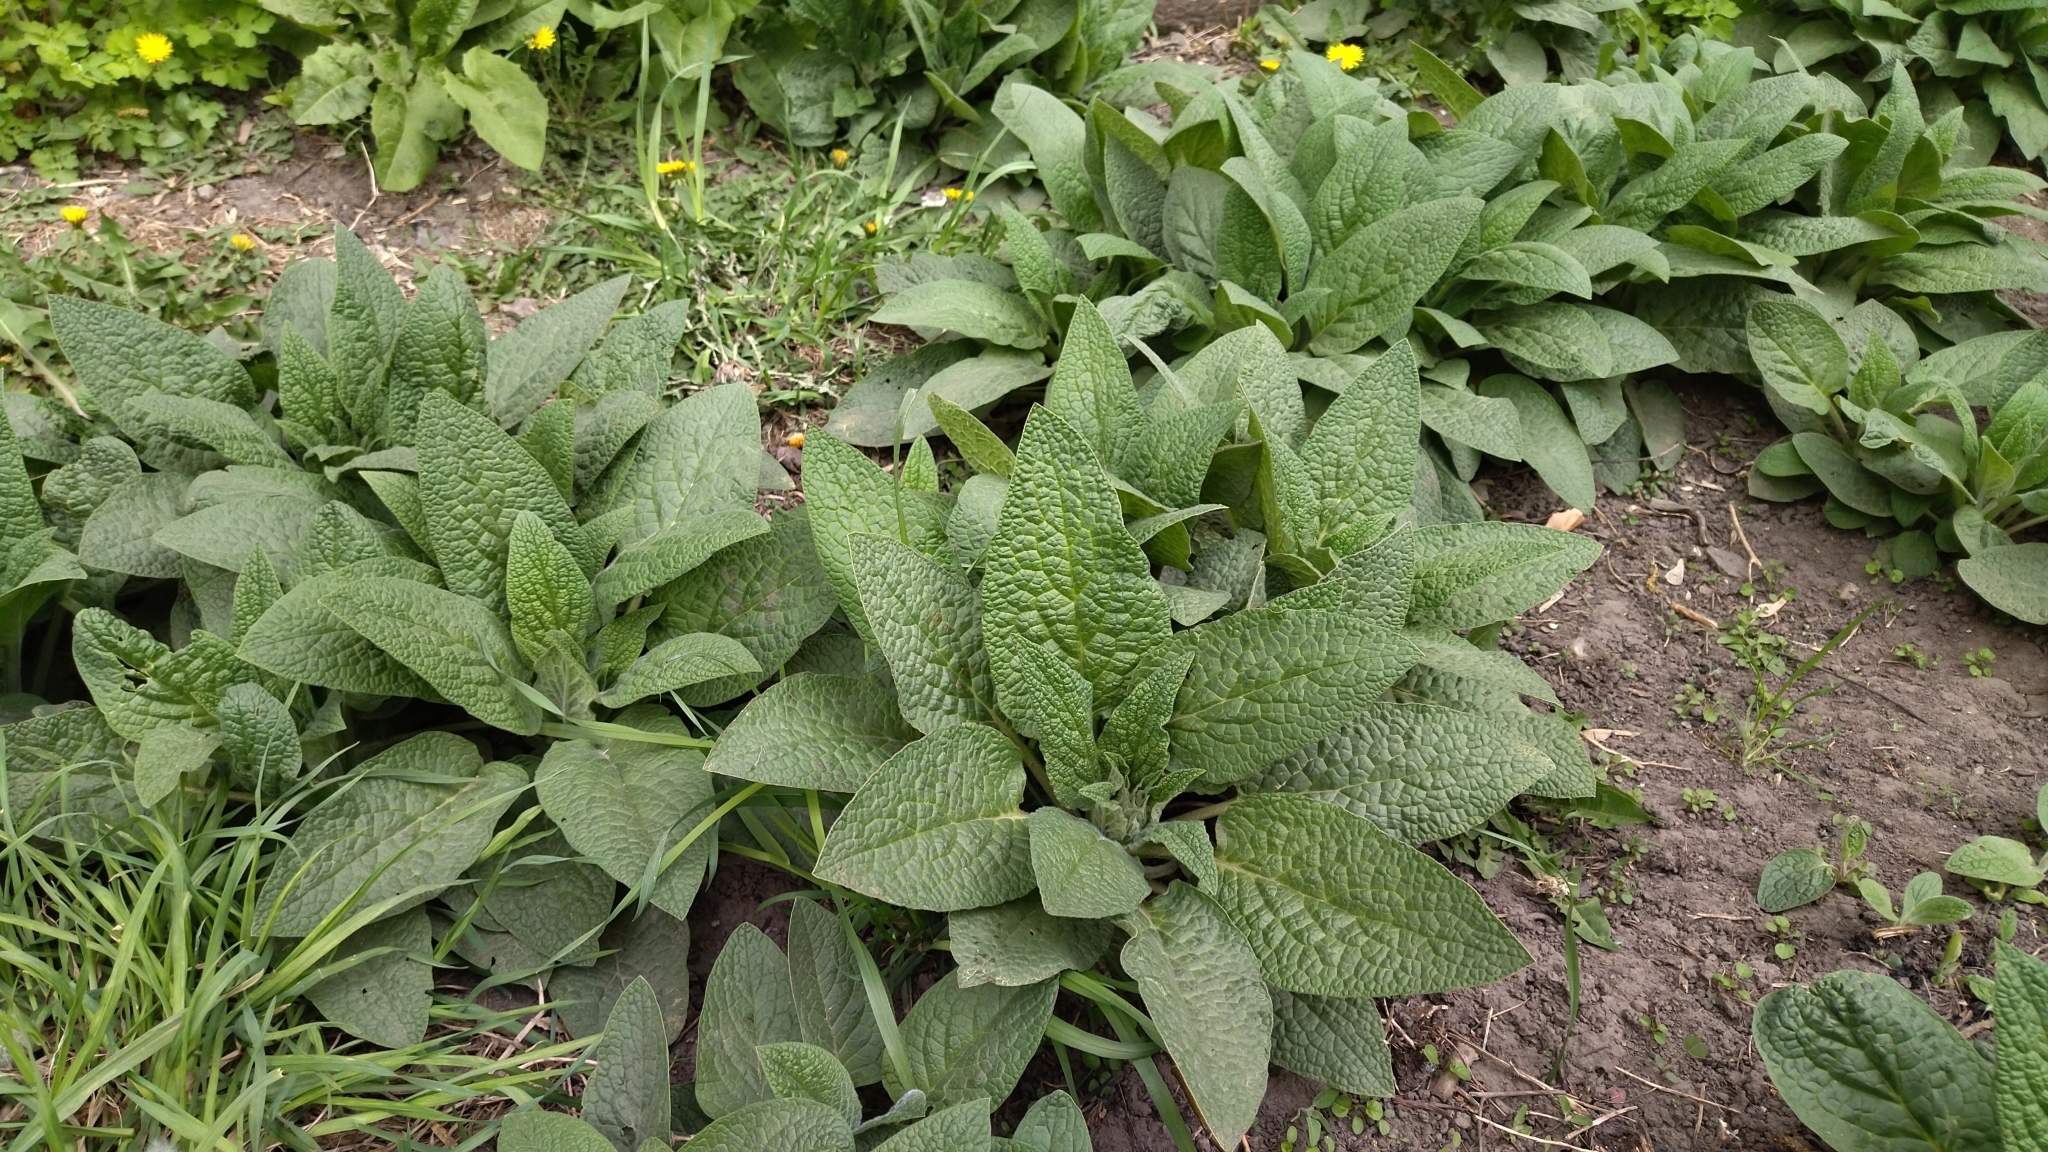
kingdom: Plantae
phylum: Tracheophyta
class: Magnoliopsida
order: Boraginales
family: Boraginaceae
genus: Symphytum
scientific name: Symphytum caucasicum
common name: Caucasian comfrey
